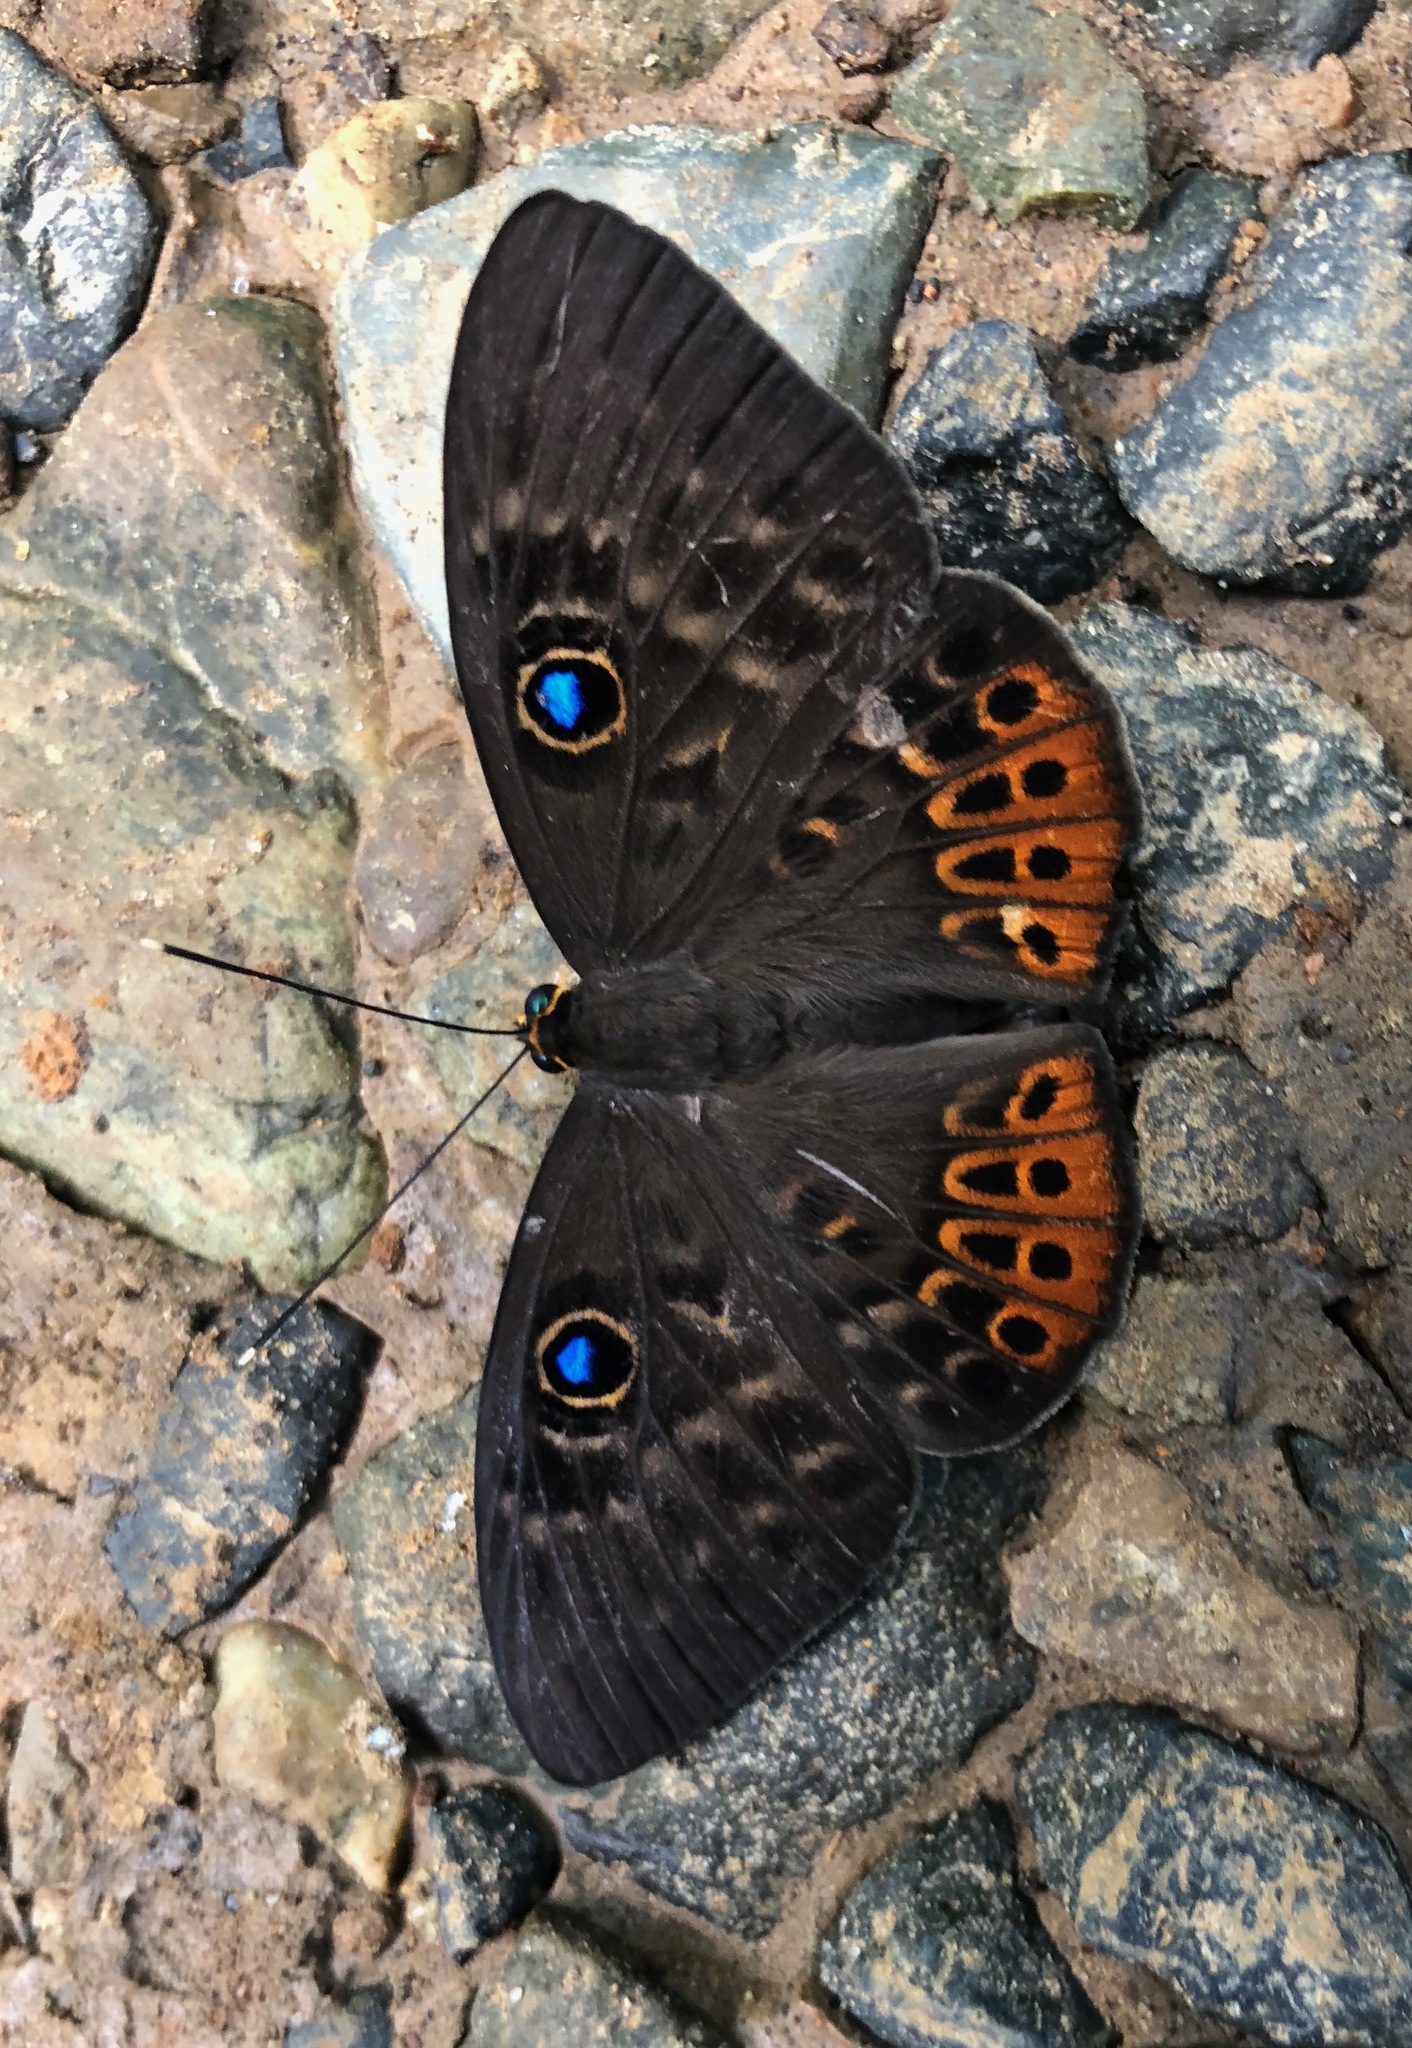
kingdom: Animalia
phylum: Cnidaria
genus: Eurybia
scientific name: Eurybia patrona
